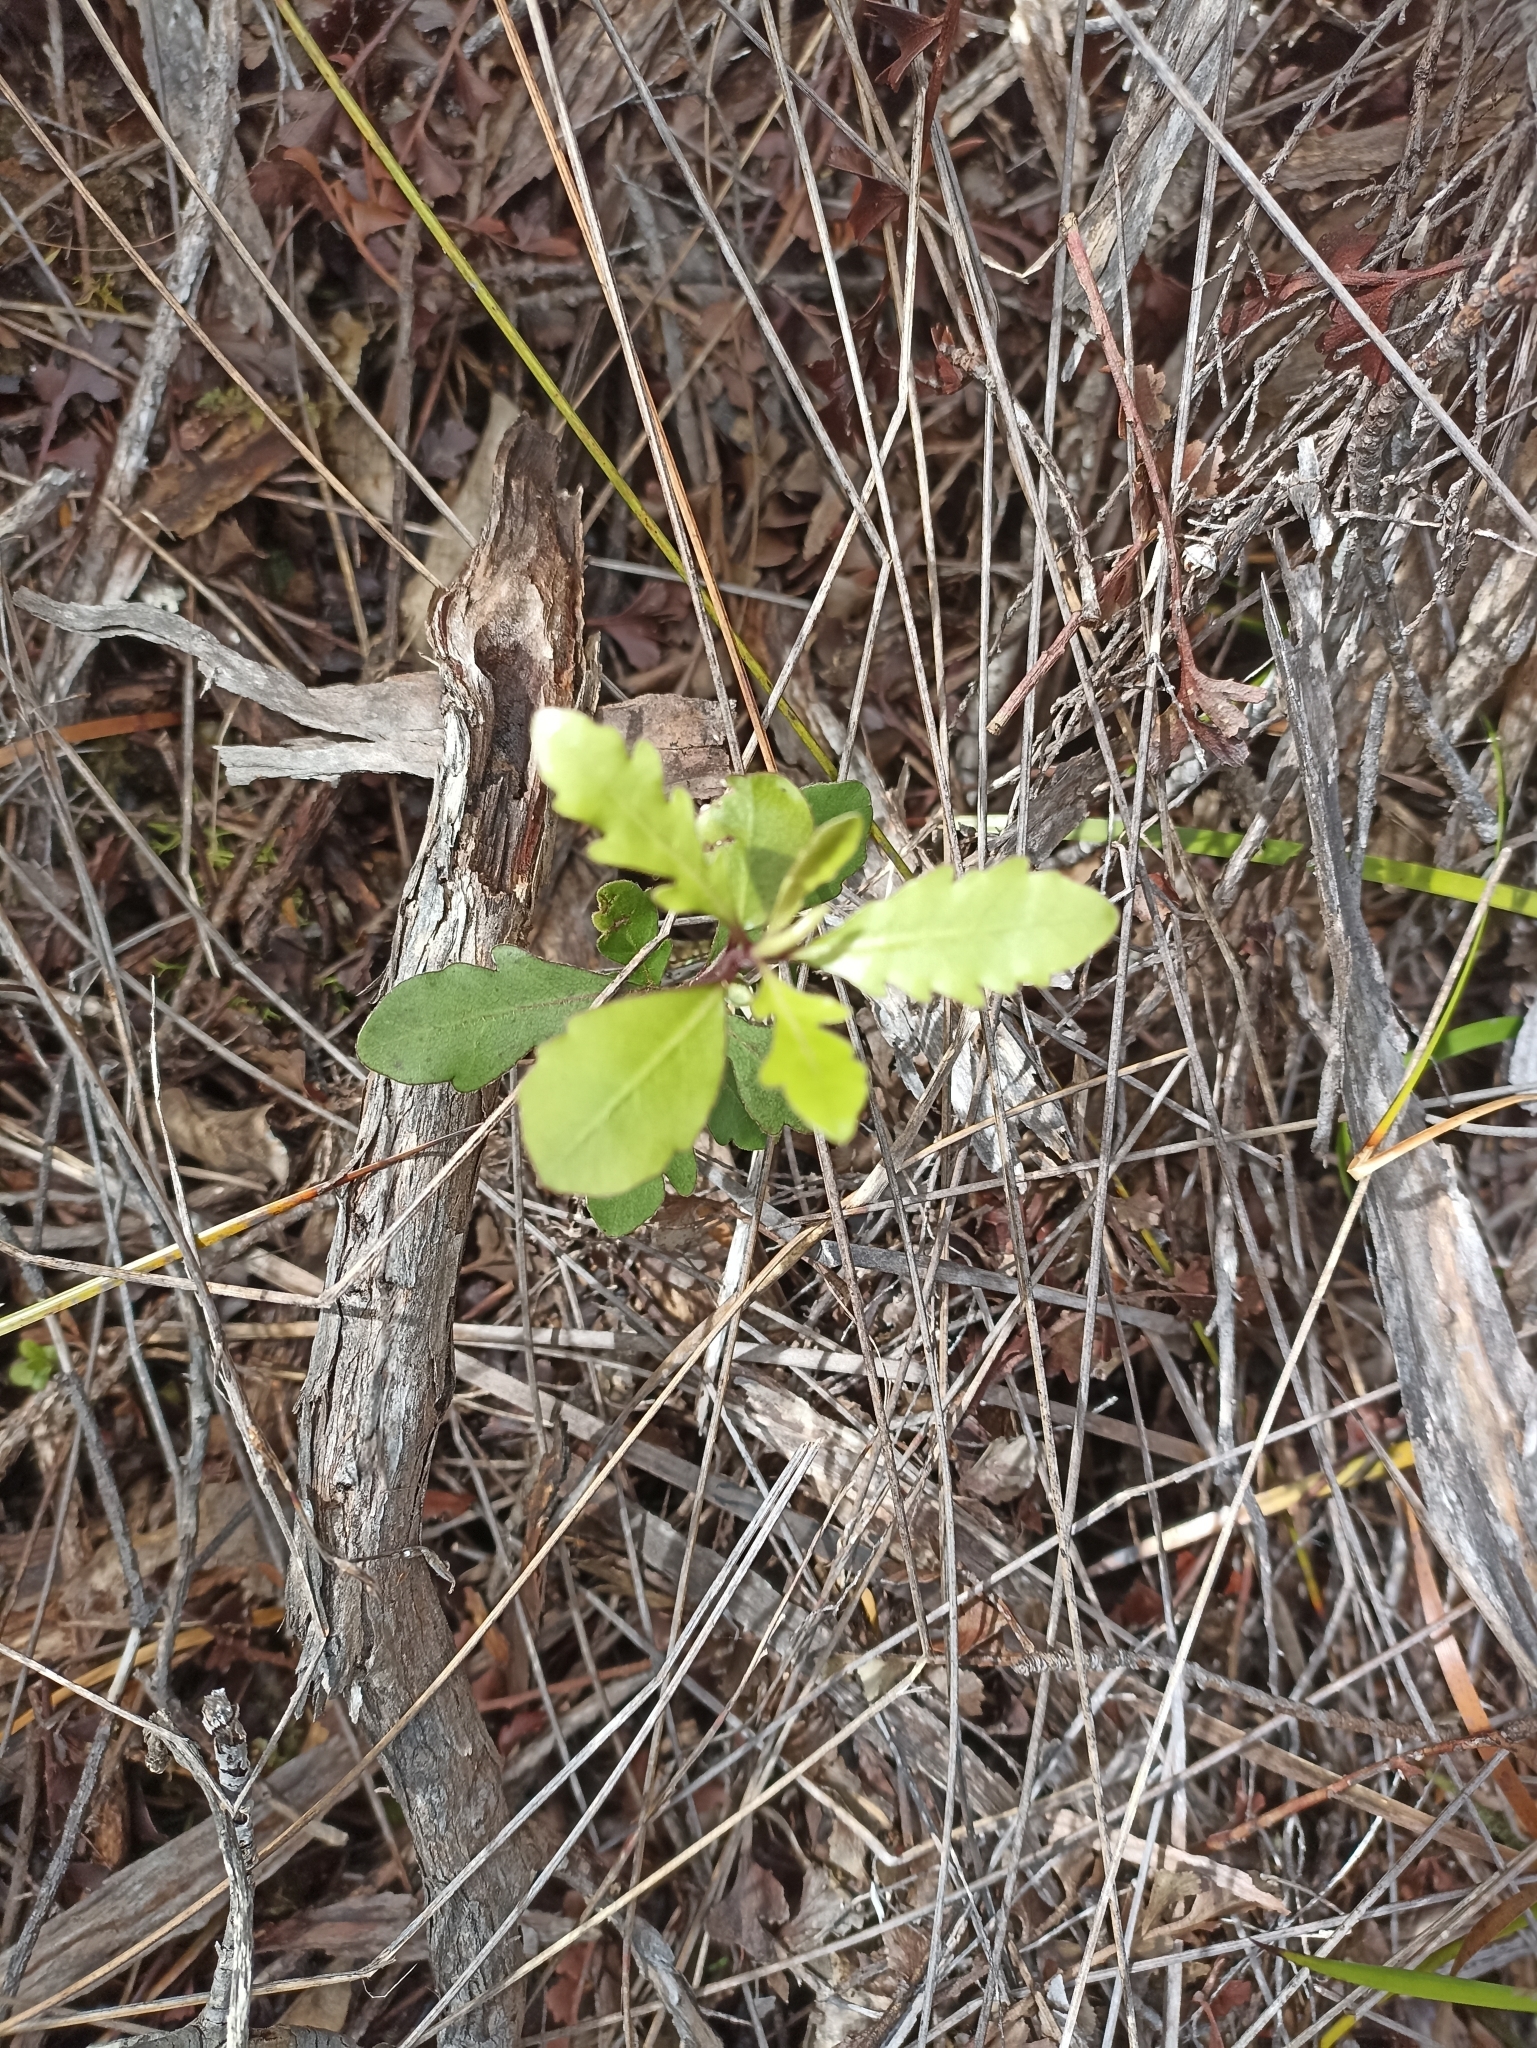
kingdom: Plantae
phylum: Tracheophyta
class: Magnoliopsida
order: Apiales
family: Pittosporaceae
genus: Pittosporum
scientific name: Pittosporum virgatum
